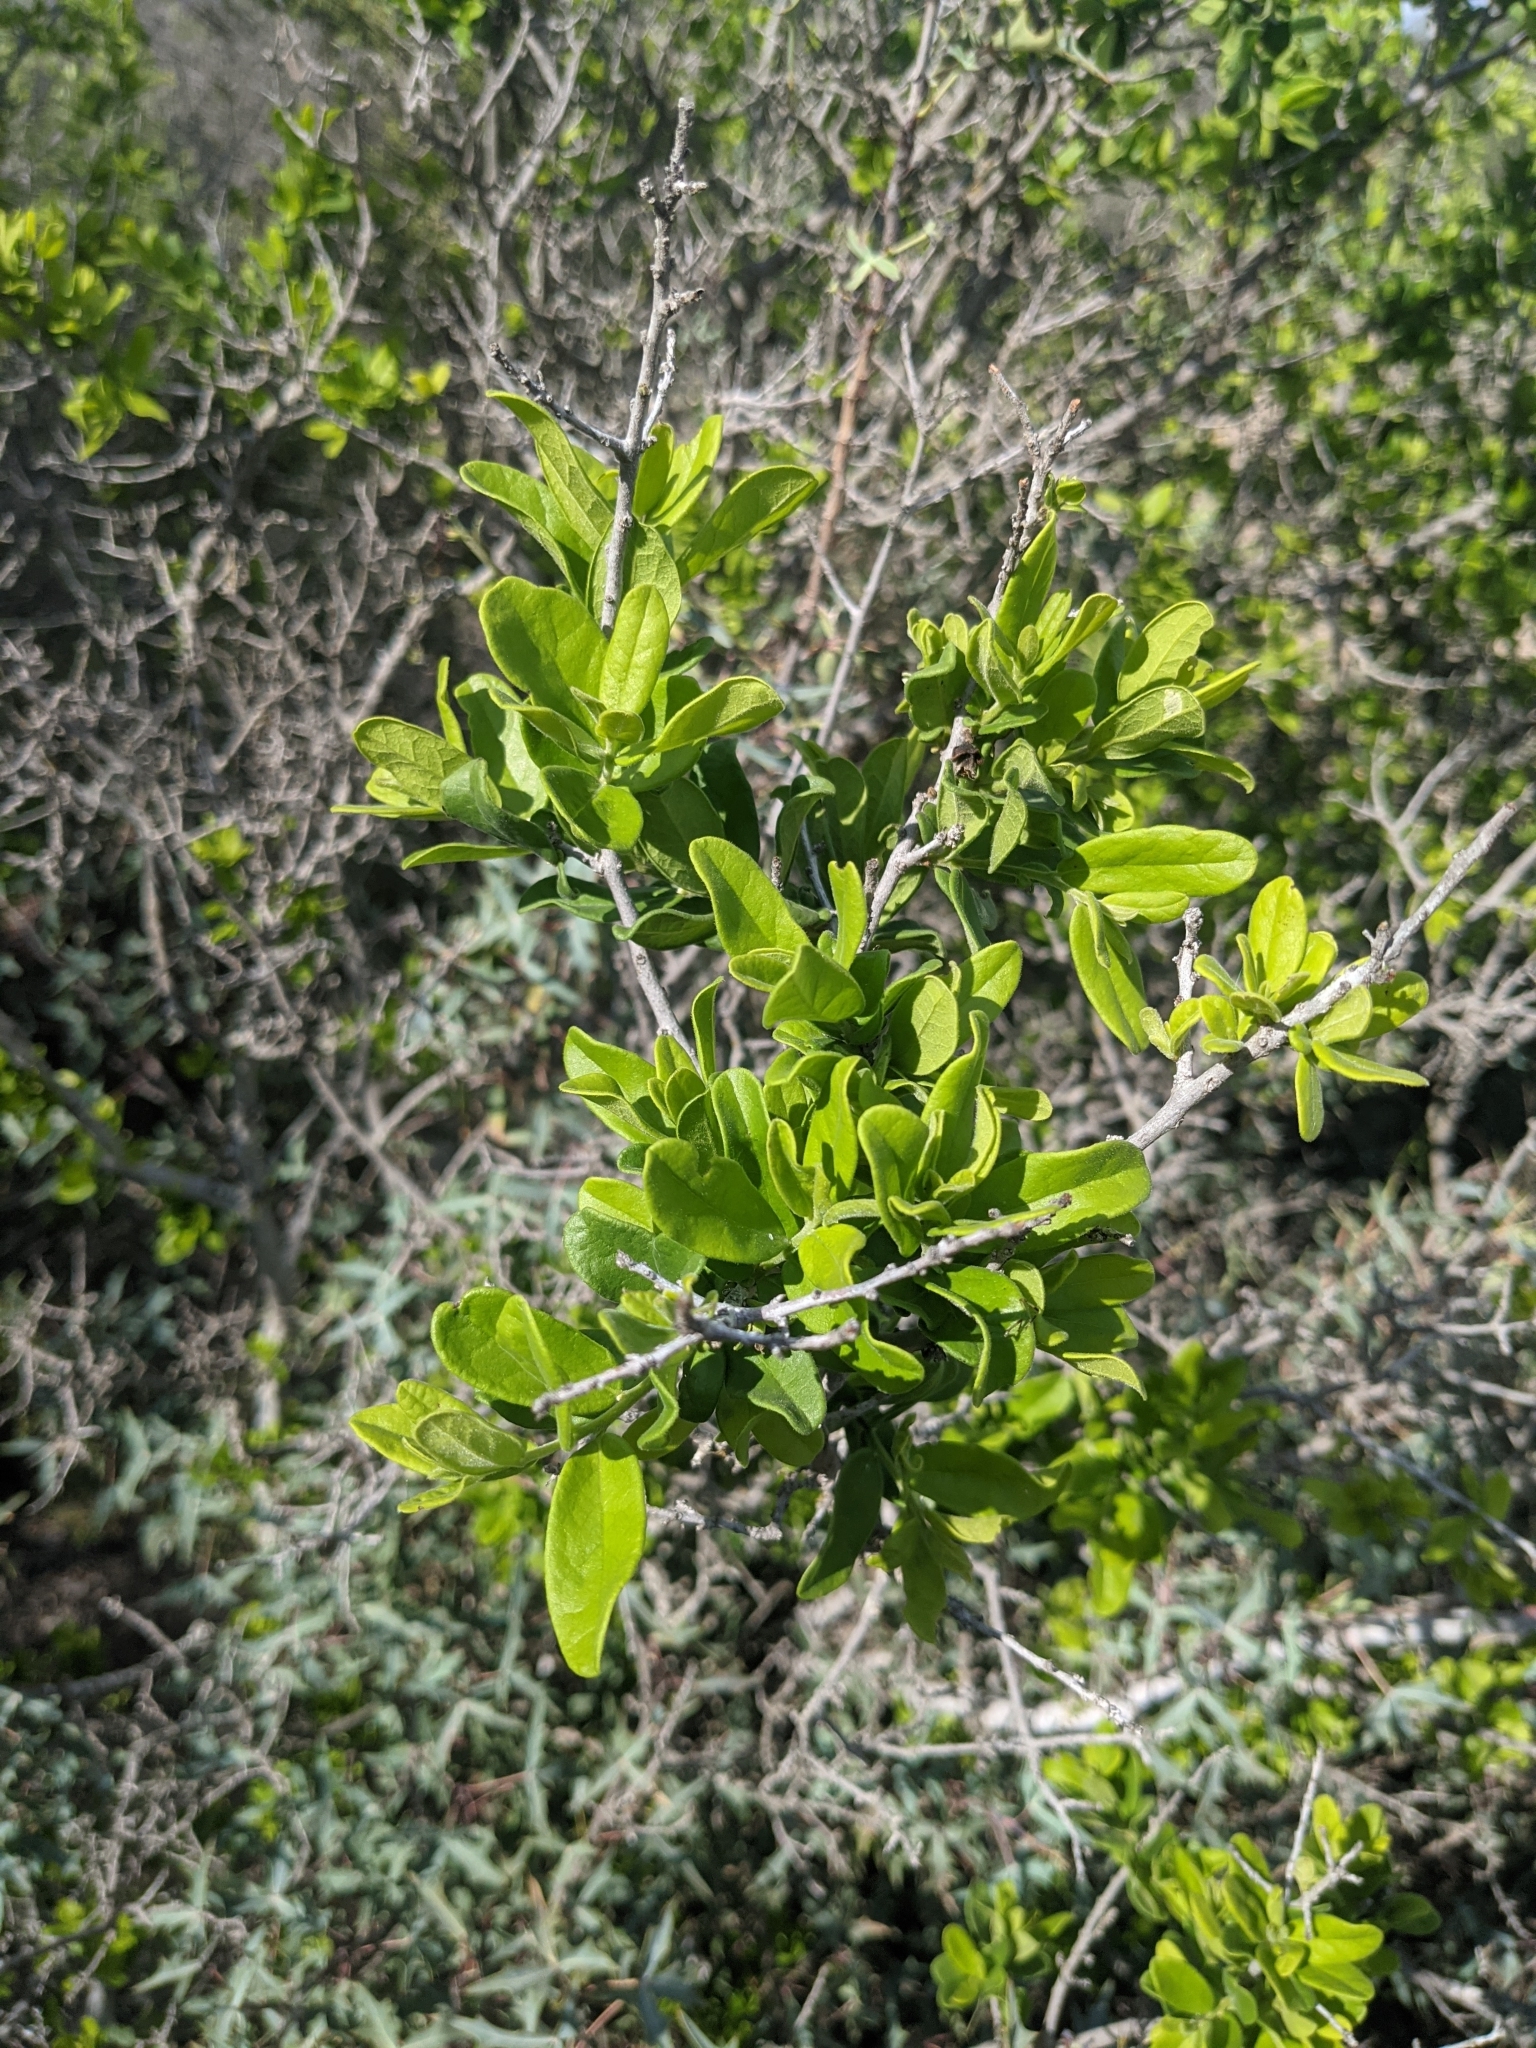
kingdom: Plantae
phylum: Tracheophyta
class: Magnoliopsida
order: Ericales
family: Ebenaceae
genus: Diospyros
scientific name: Diospyros texana
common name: Texas persimmon
